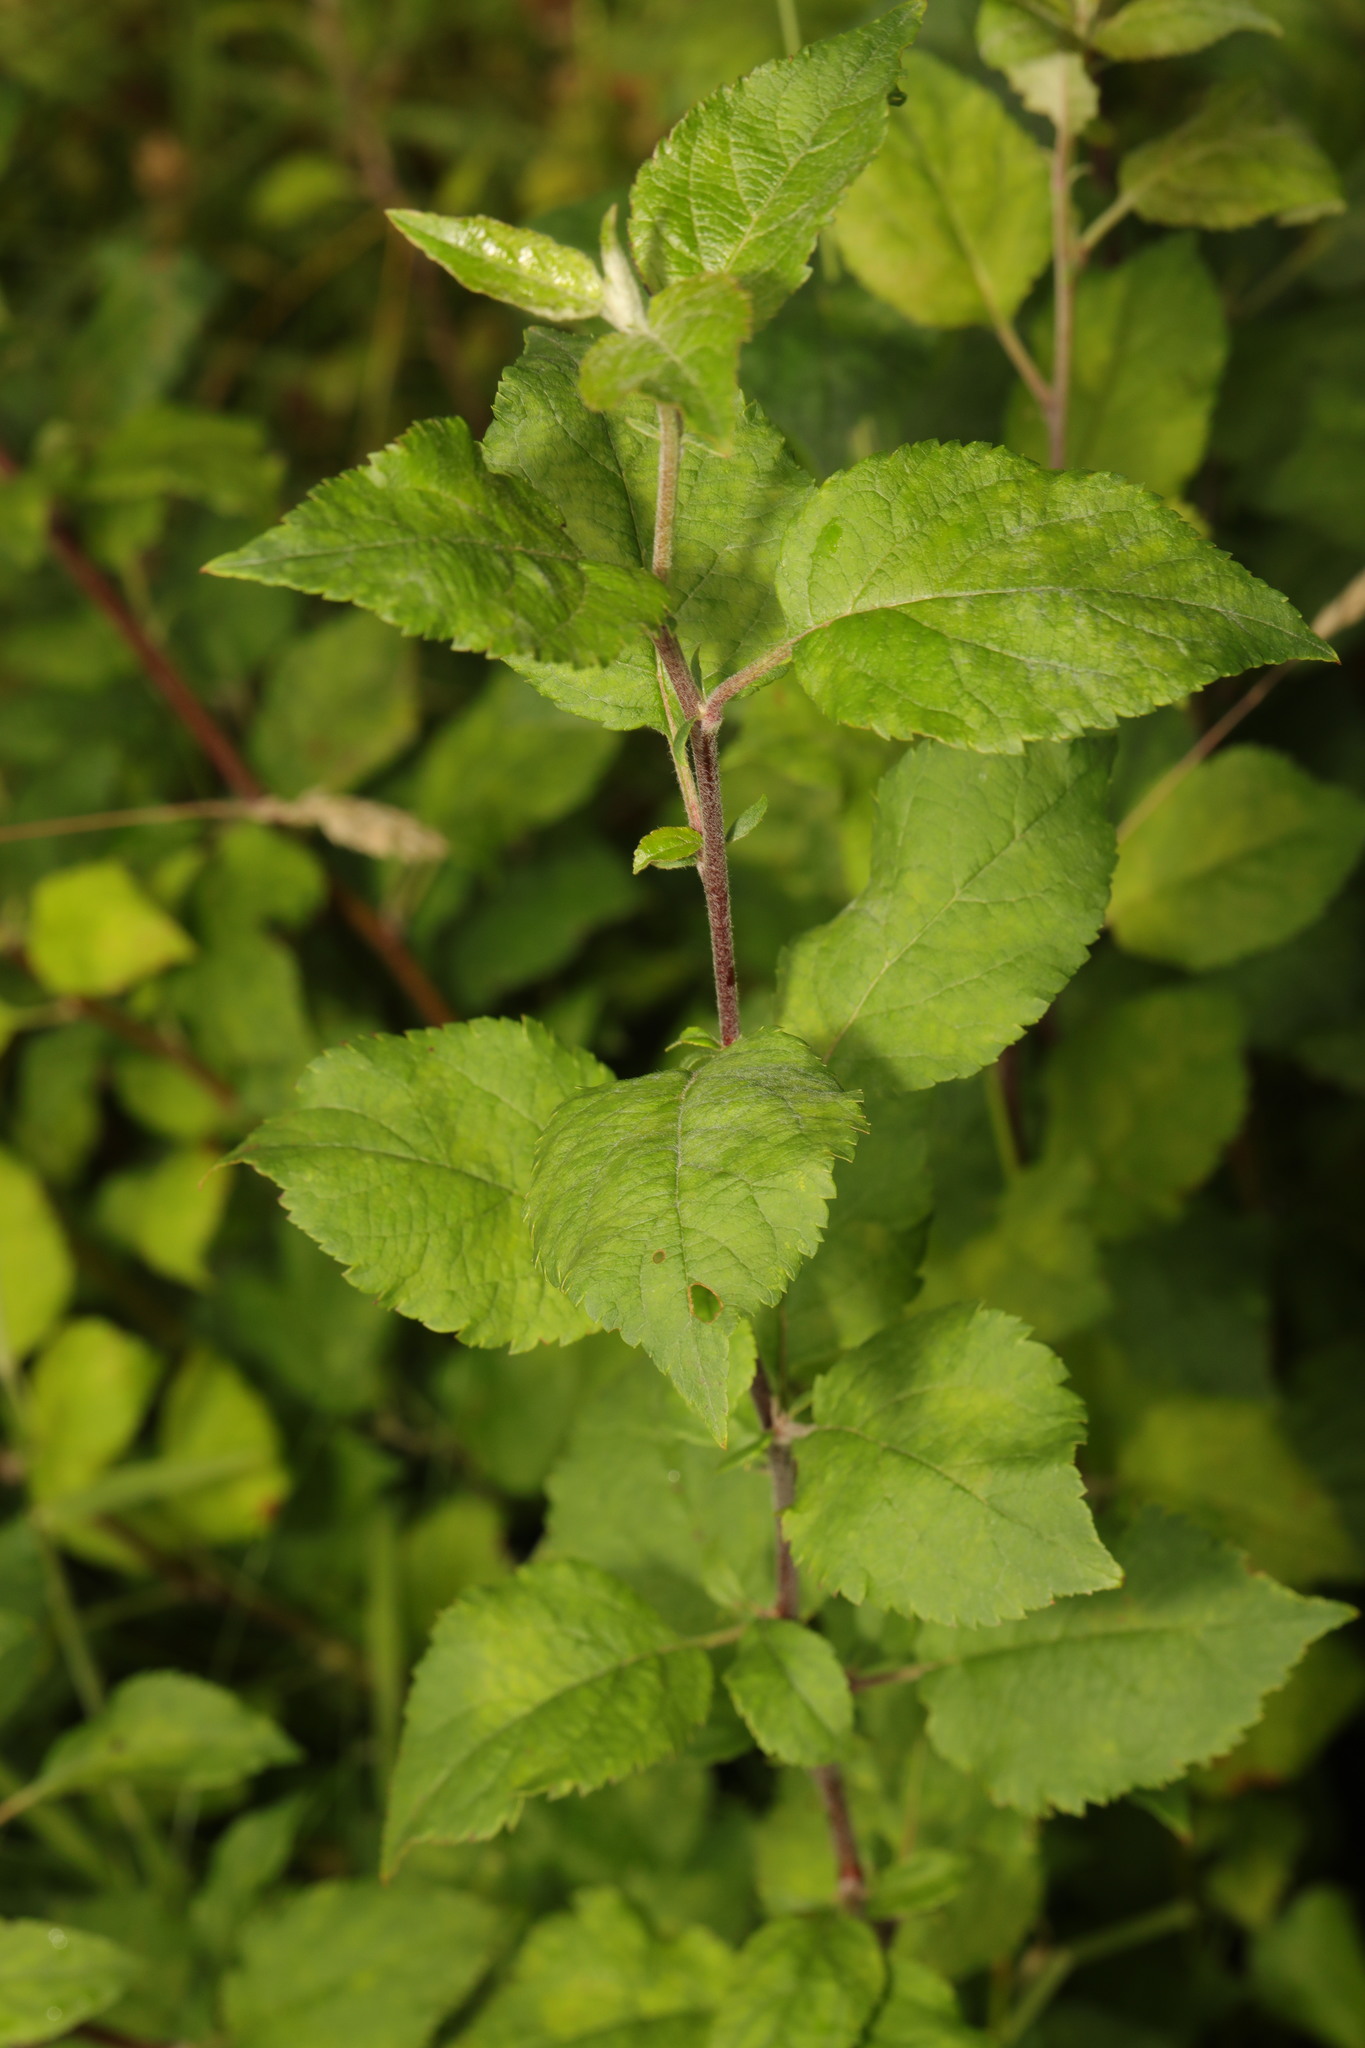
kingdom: Plantae
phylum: Tracheophyta
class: Magnoliopsida
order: Rosales
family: Rosaceae
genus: Malus
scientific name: Malus domestica
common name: Apple
